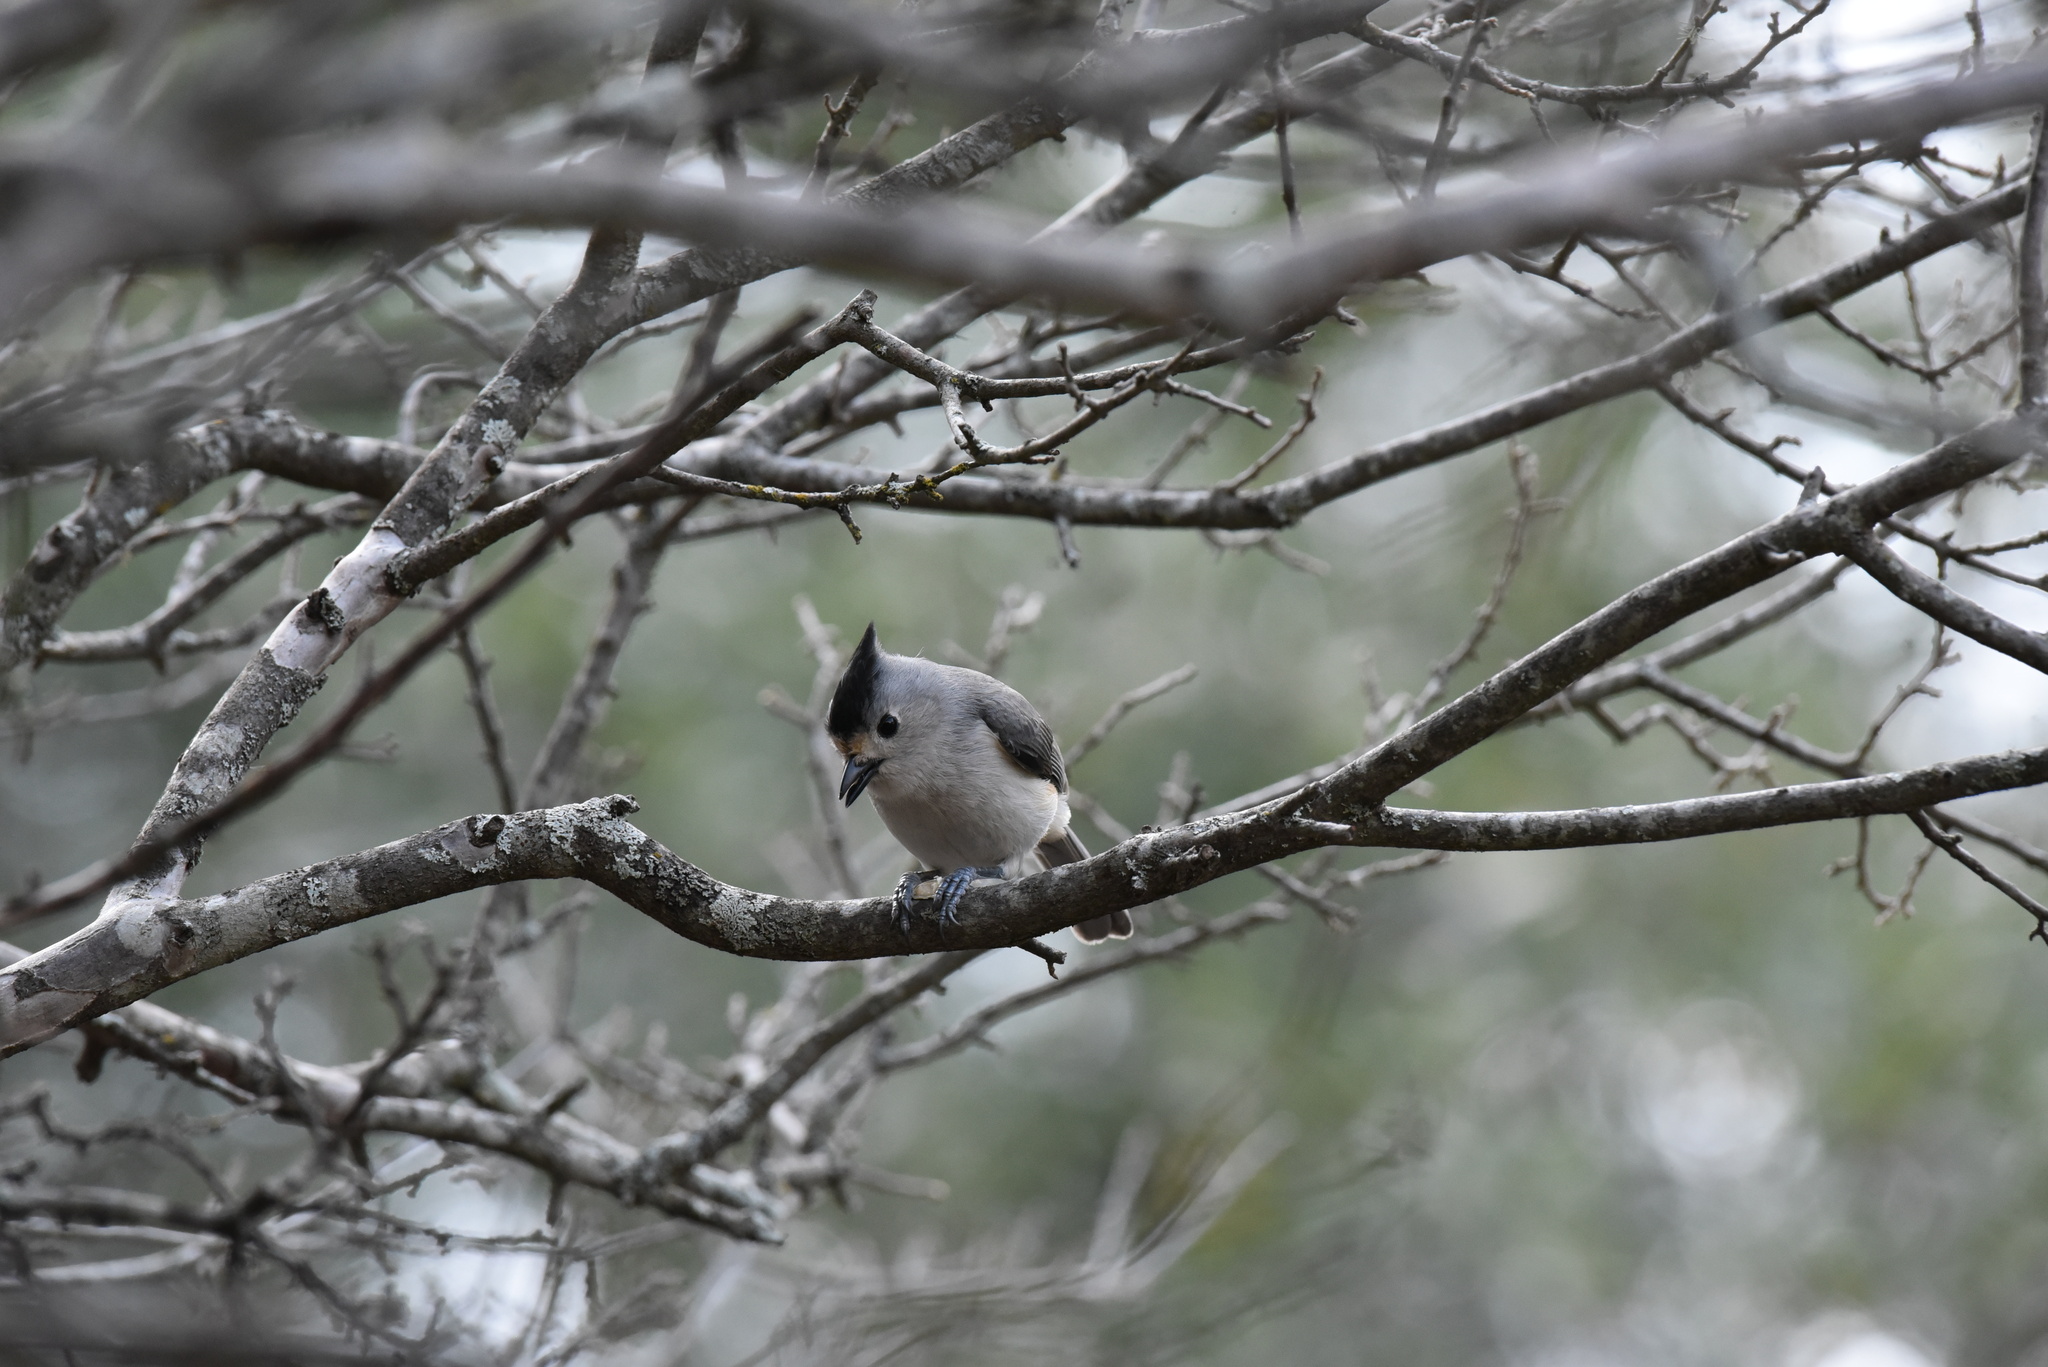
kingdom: Animalia
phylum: Chordata
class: Aves
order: Passeriformes
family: Paridae
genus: Baeolophus
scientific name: Baeolophus atricristatus
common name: Black-crested titmouse
